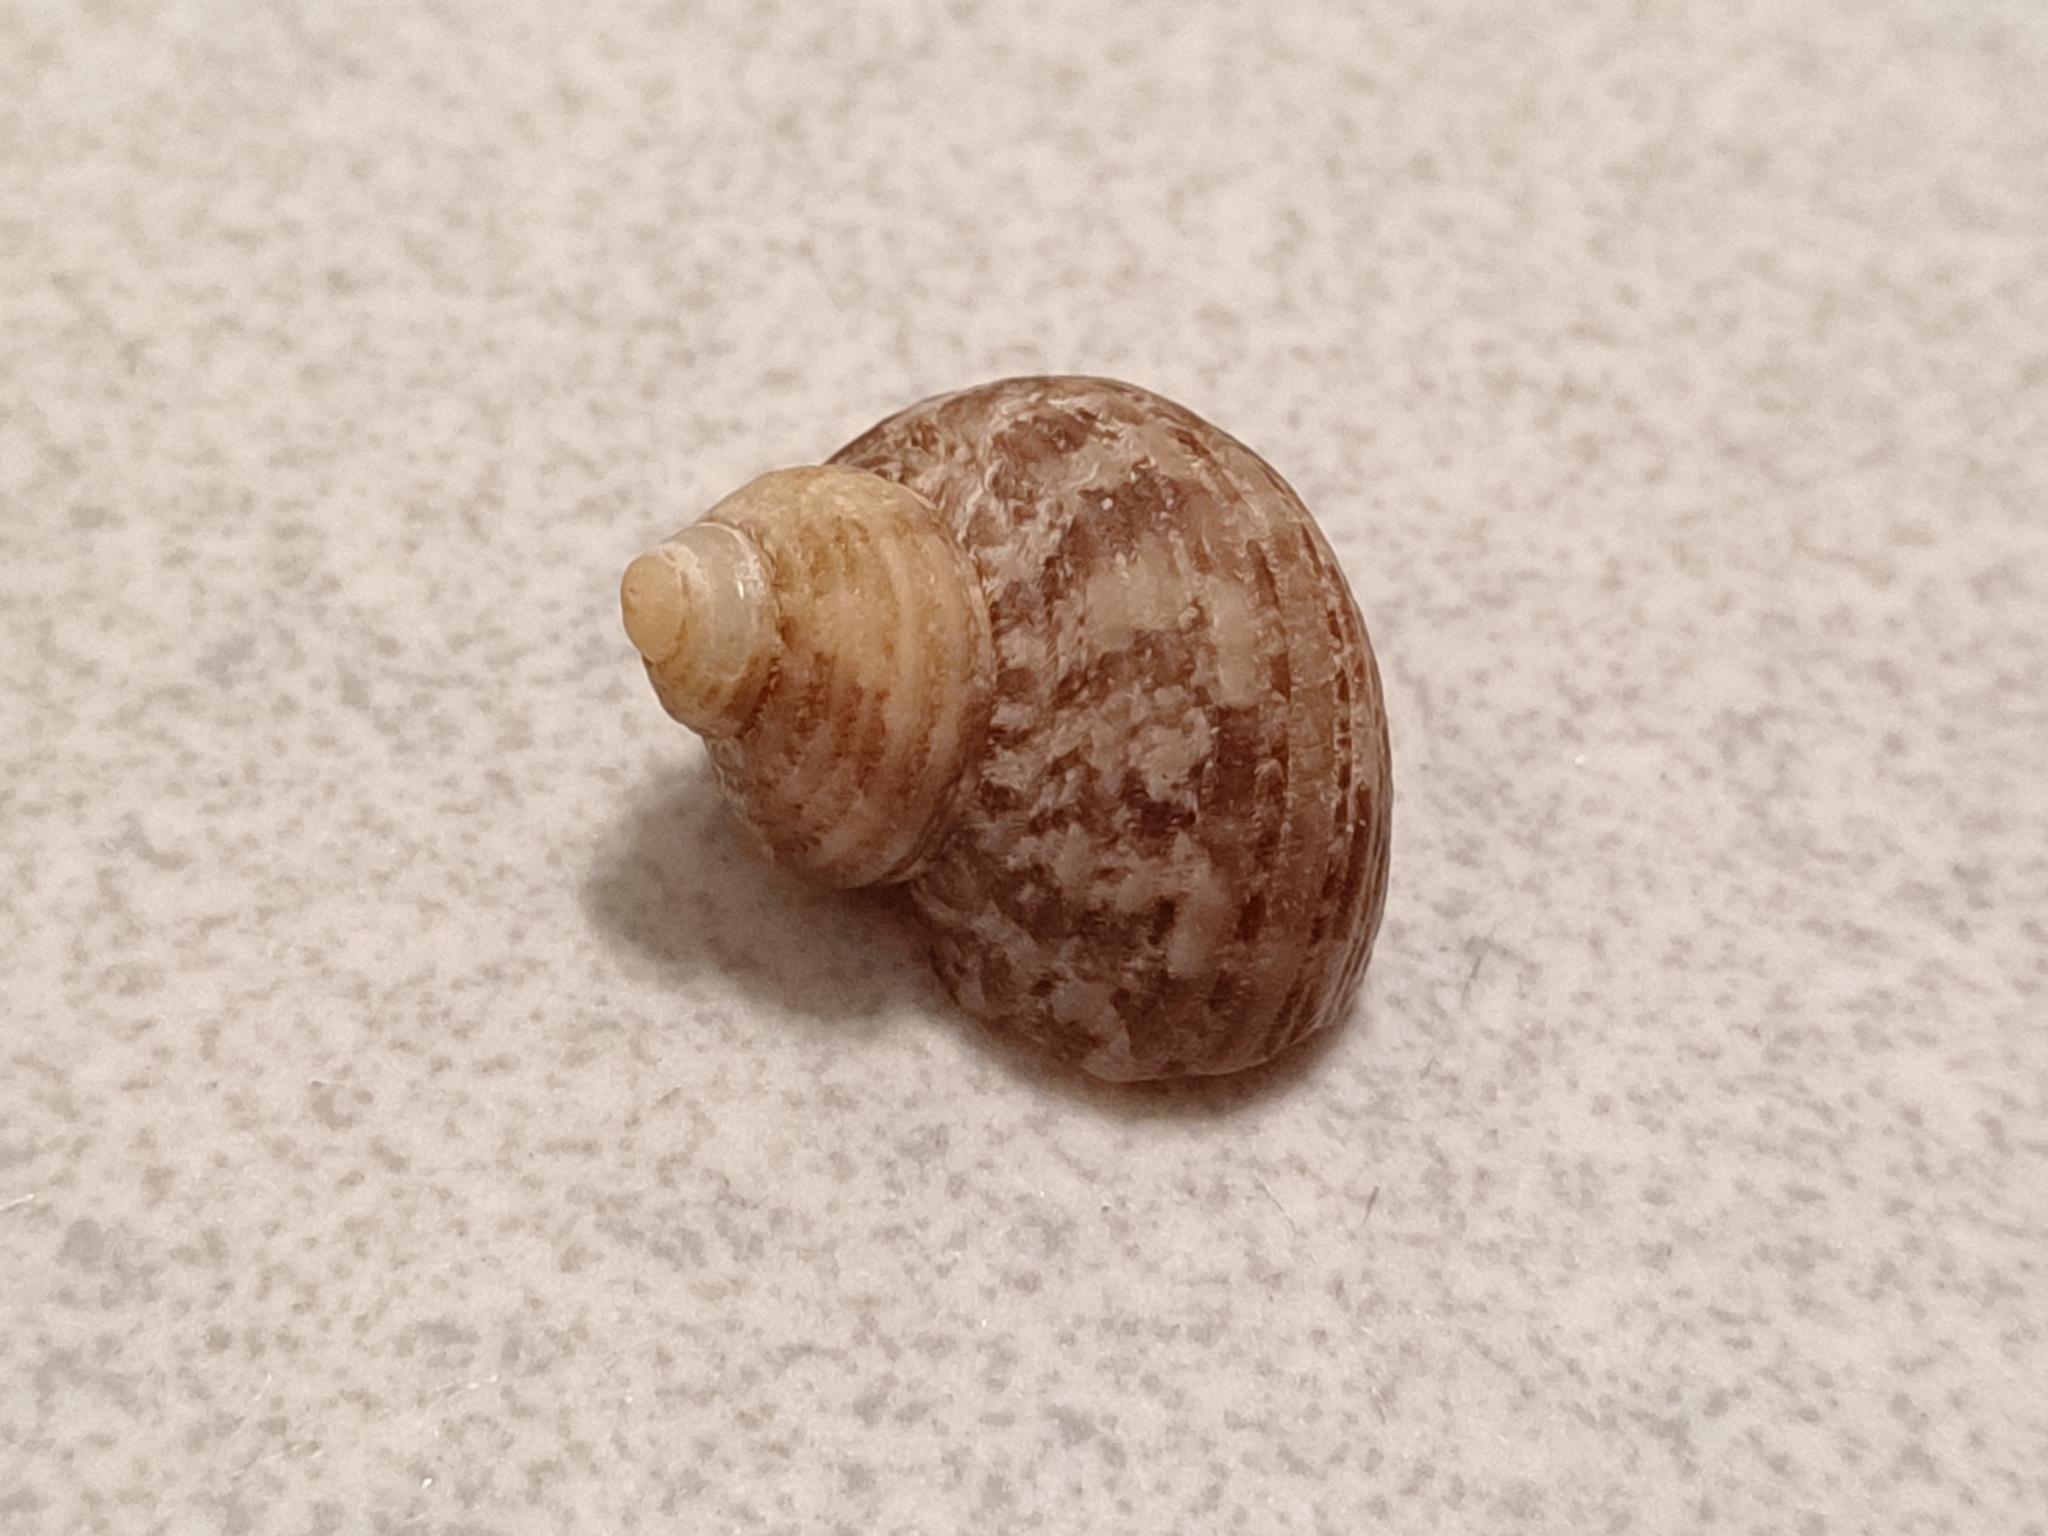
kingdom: Animalia
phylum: Mollusca
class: Gastropoda
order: Trochida
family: Turbinidae
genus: Turbo
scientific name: Turbo stenogyrus
